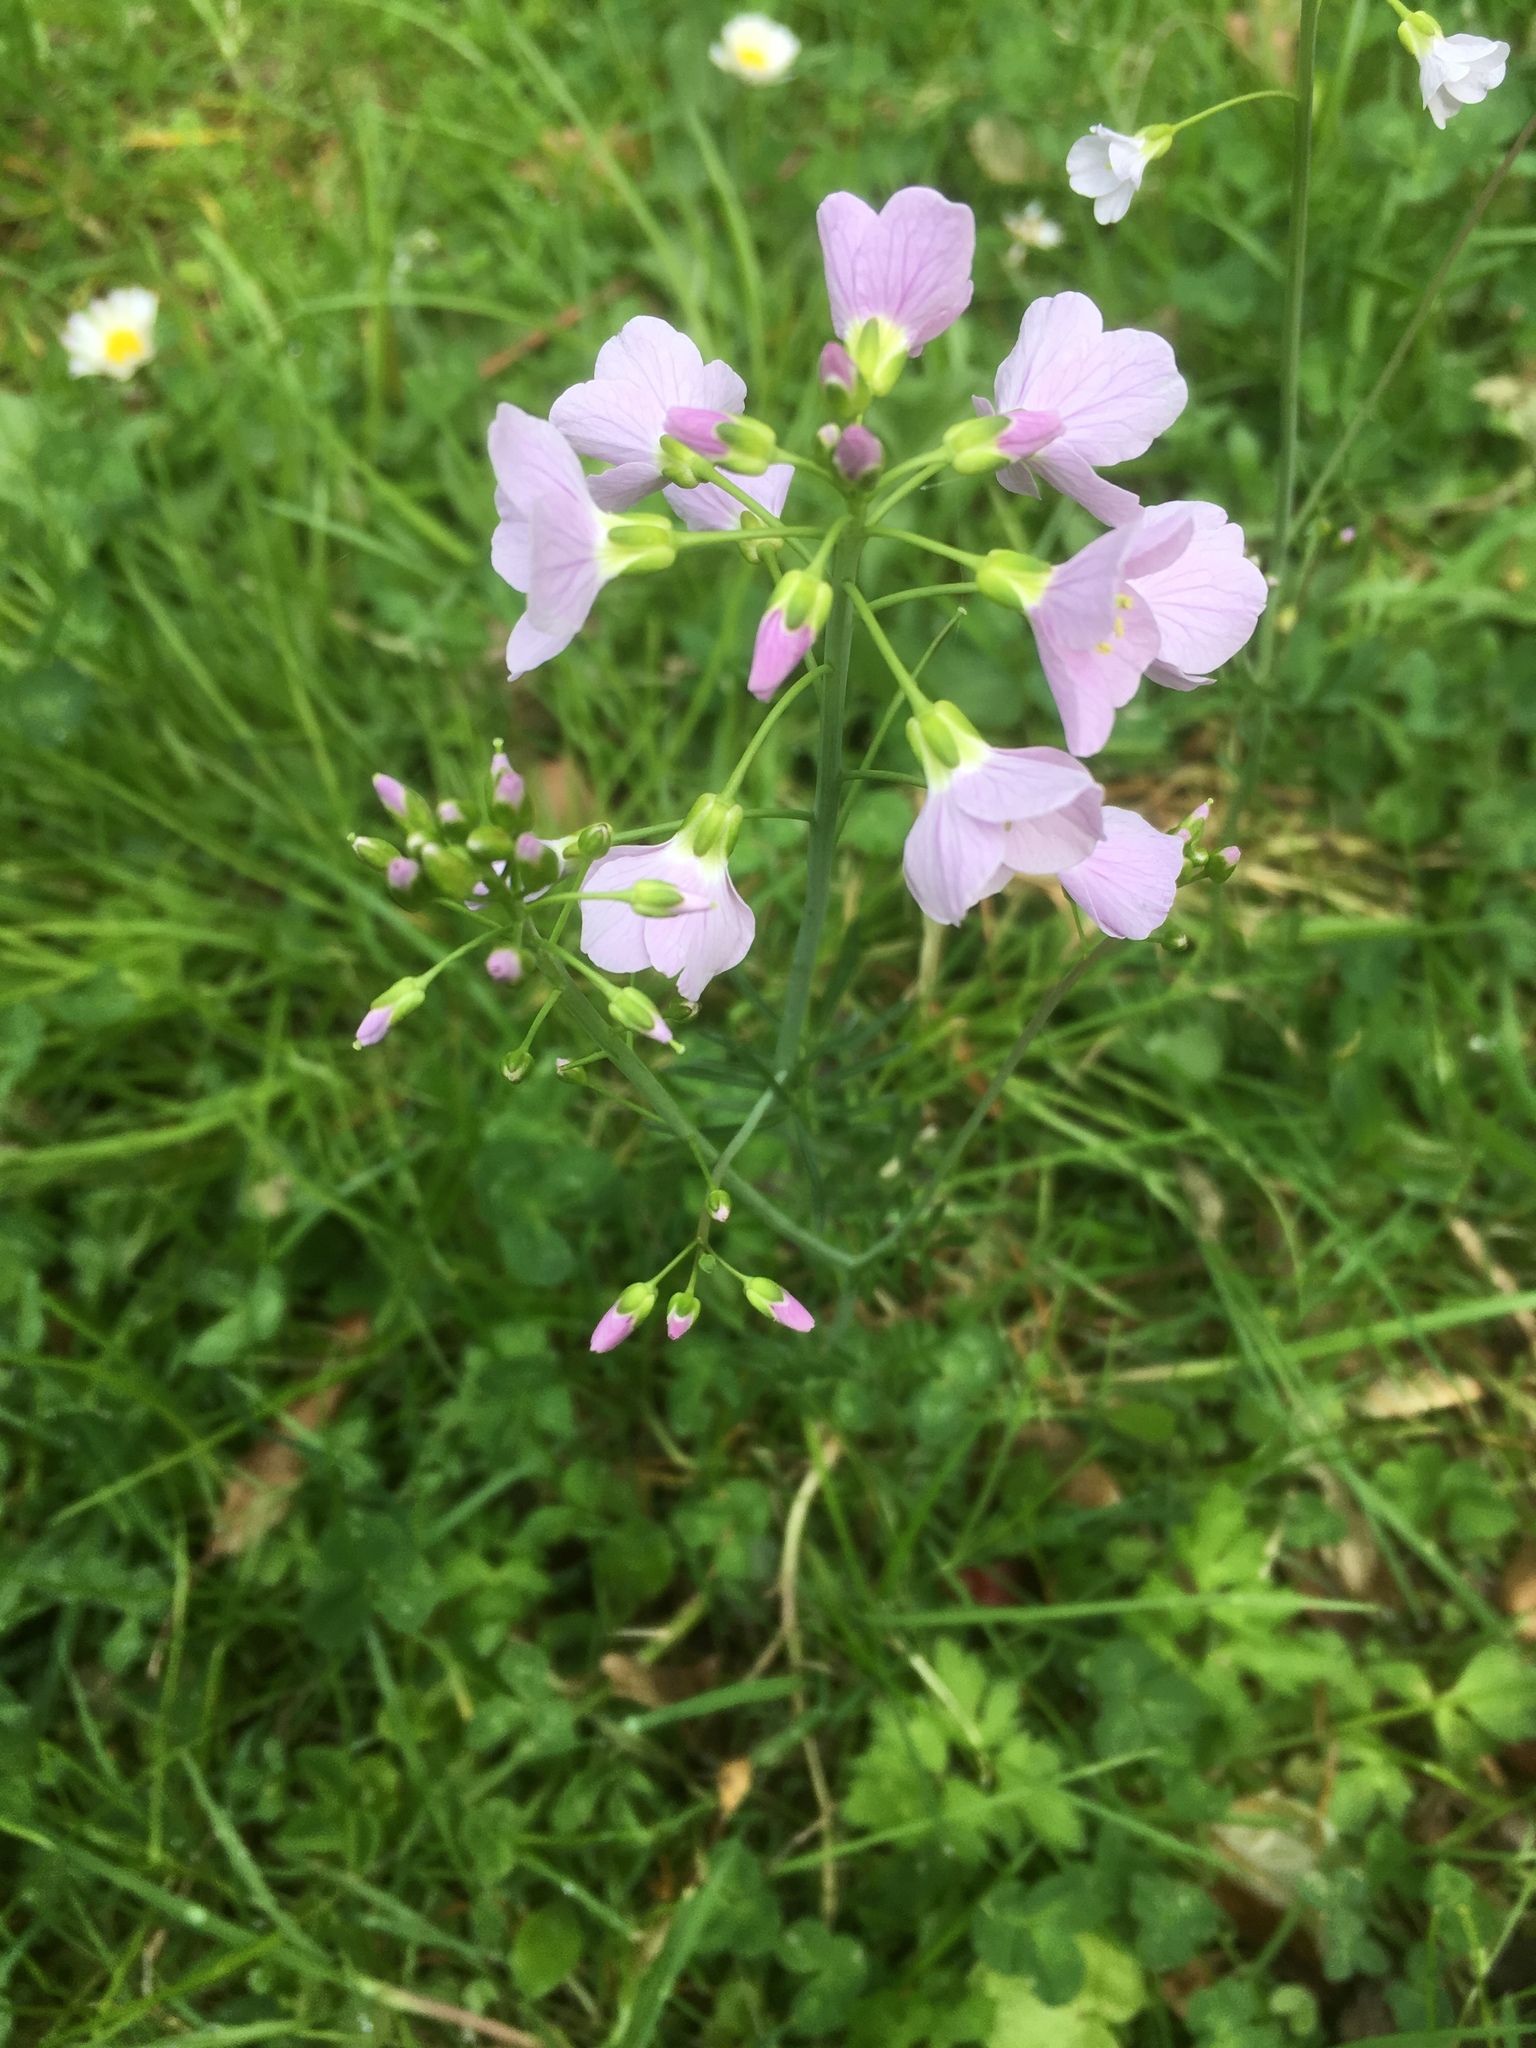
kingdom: Plantae
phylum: Tracheophyta
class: Magnoliopsida
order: Brassicales
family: Brassicaceae
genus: Cardamine
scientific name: Cardamine pratensis
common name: Cuckoo flower
